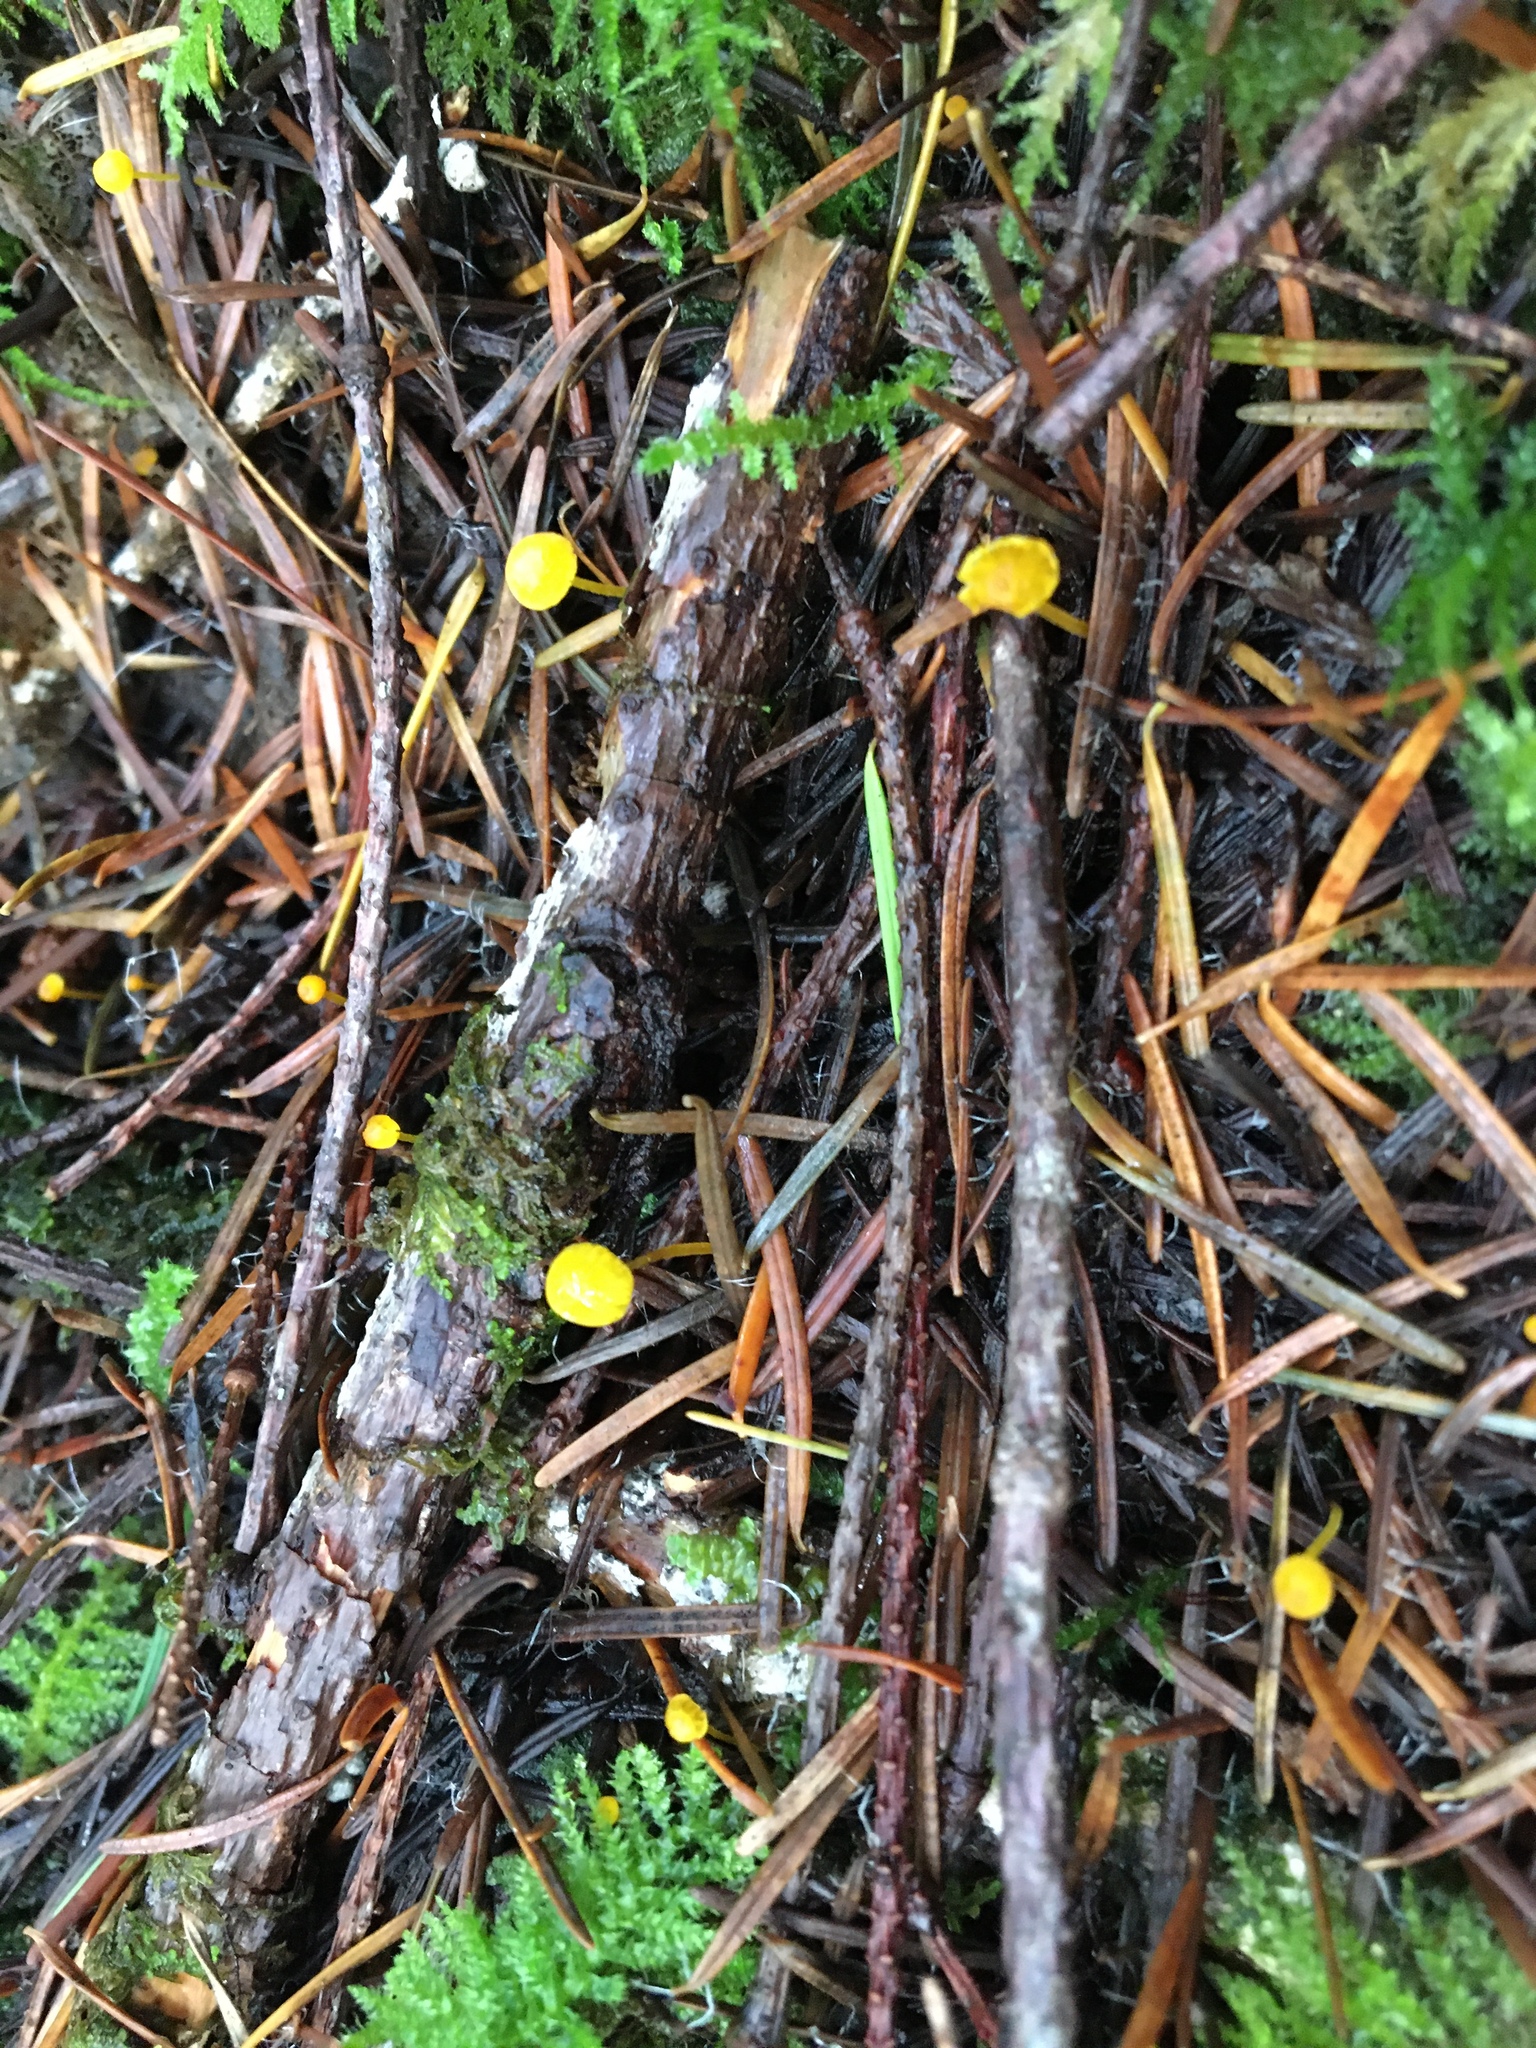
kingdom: Fungi
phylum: Basidiomycota
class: Agaricomycetes
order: Agaricales
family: Mycenaceae
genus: Mycena
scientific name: Mycena oregonensis
